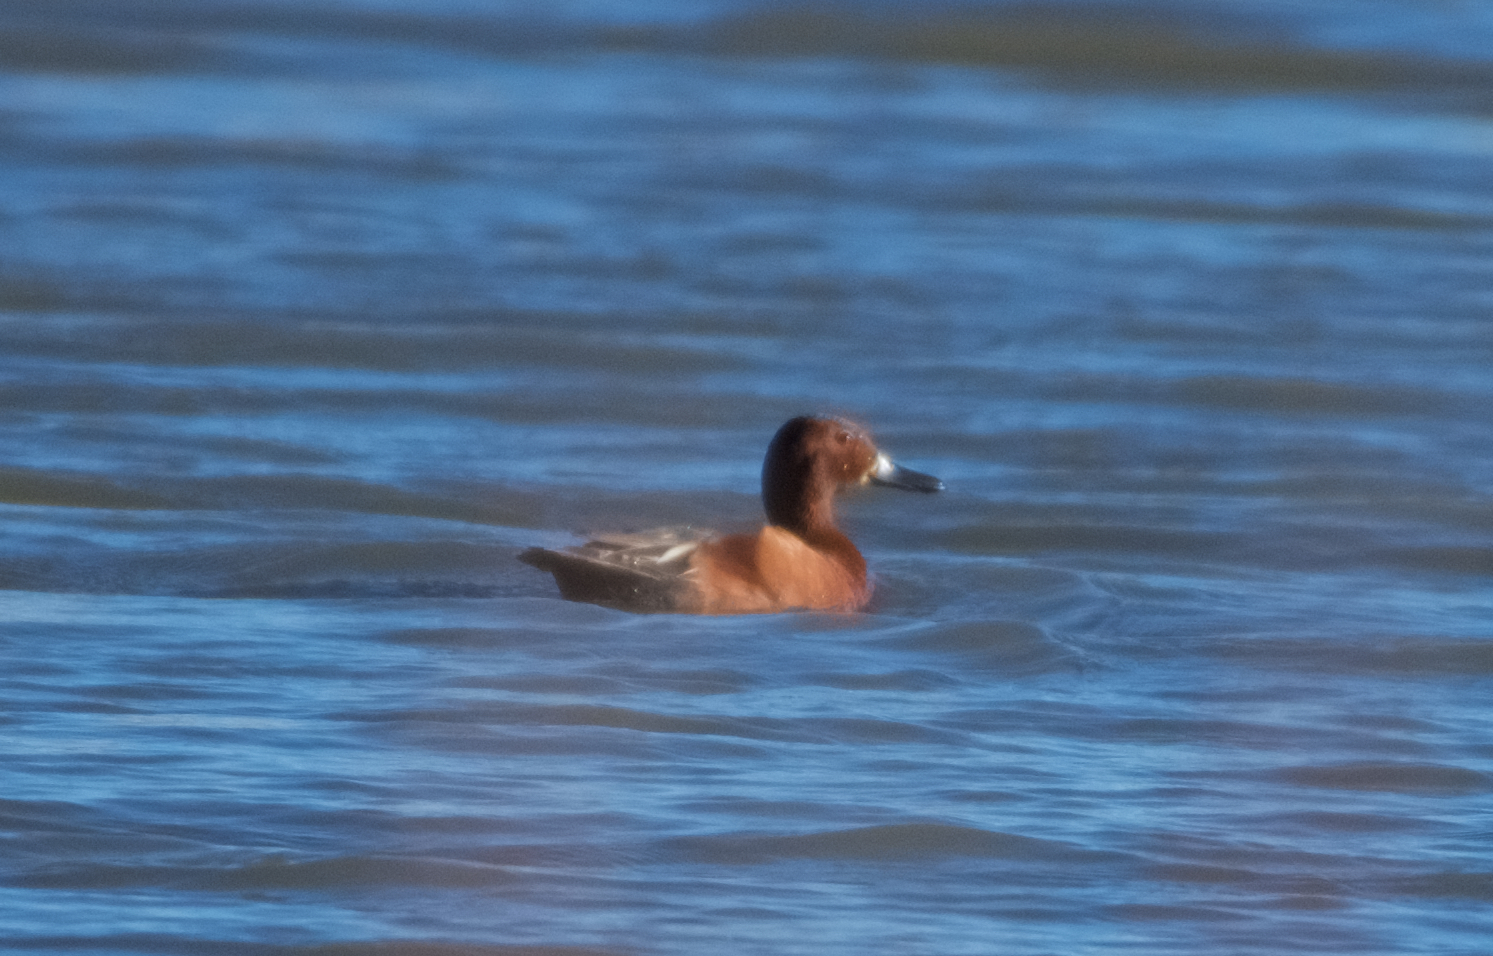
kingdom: Animalia
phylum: Chordata
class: Aves
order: Anseriformes
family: Anatidae
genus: Spatula
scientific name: Spatula cyanoptera
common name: Cinnamon teal
